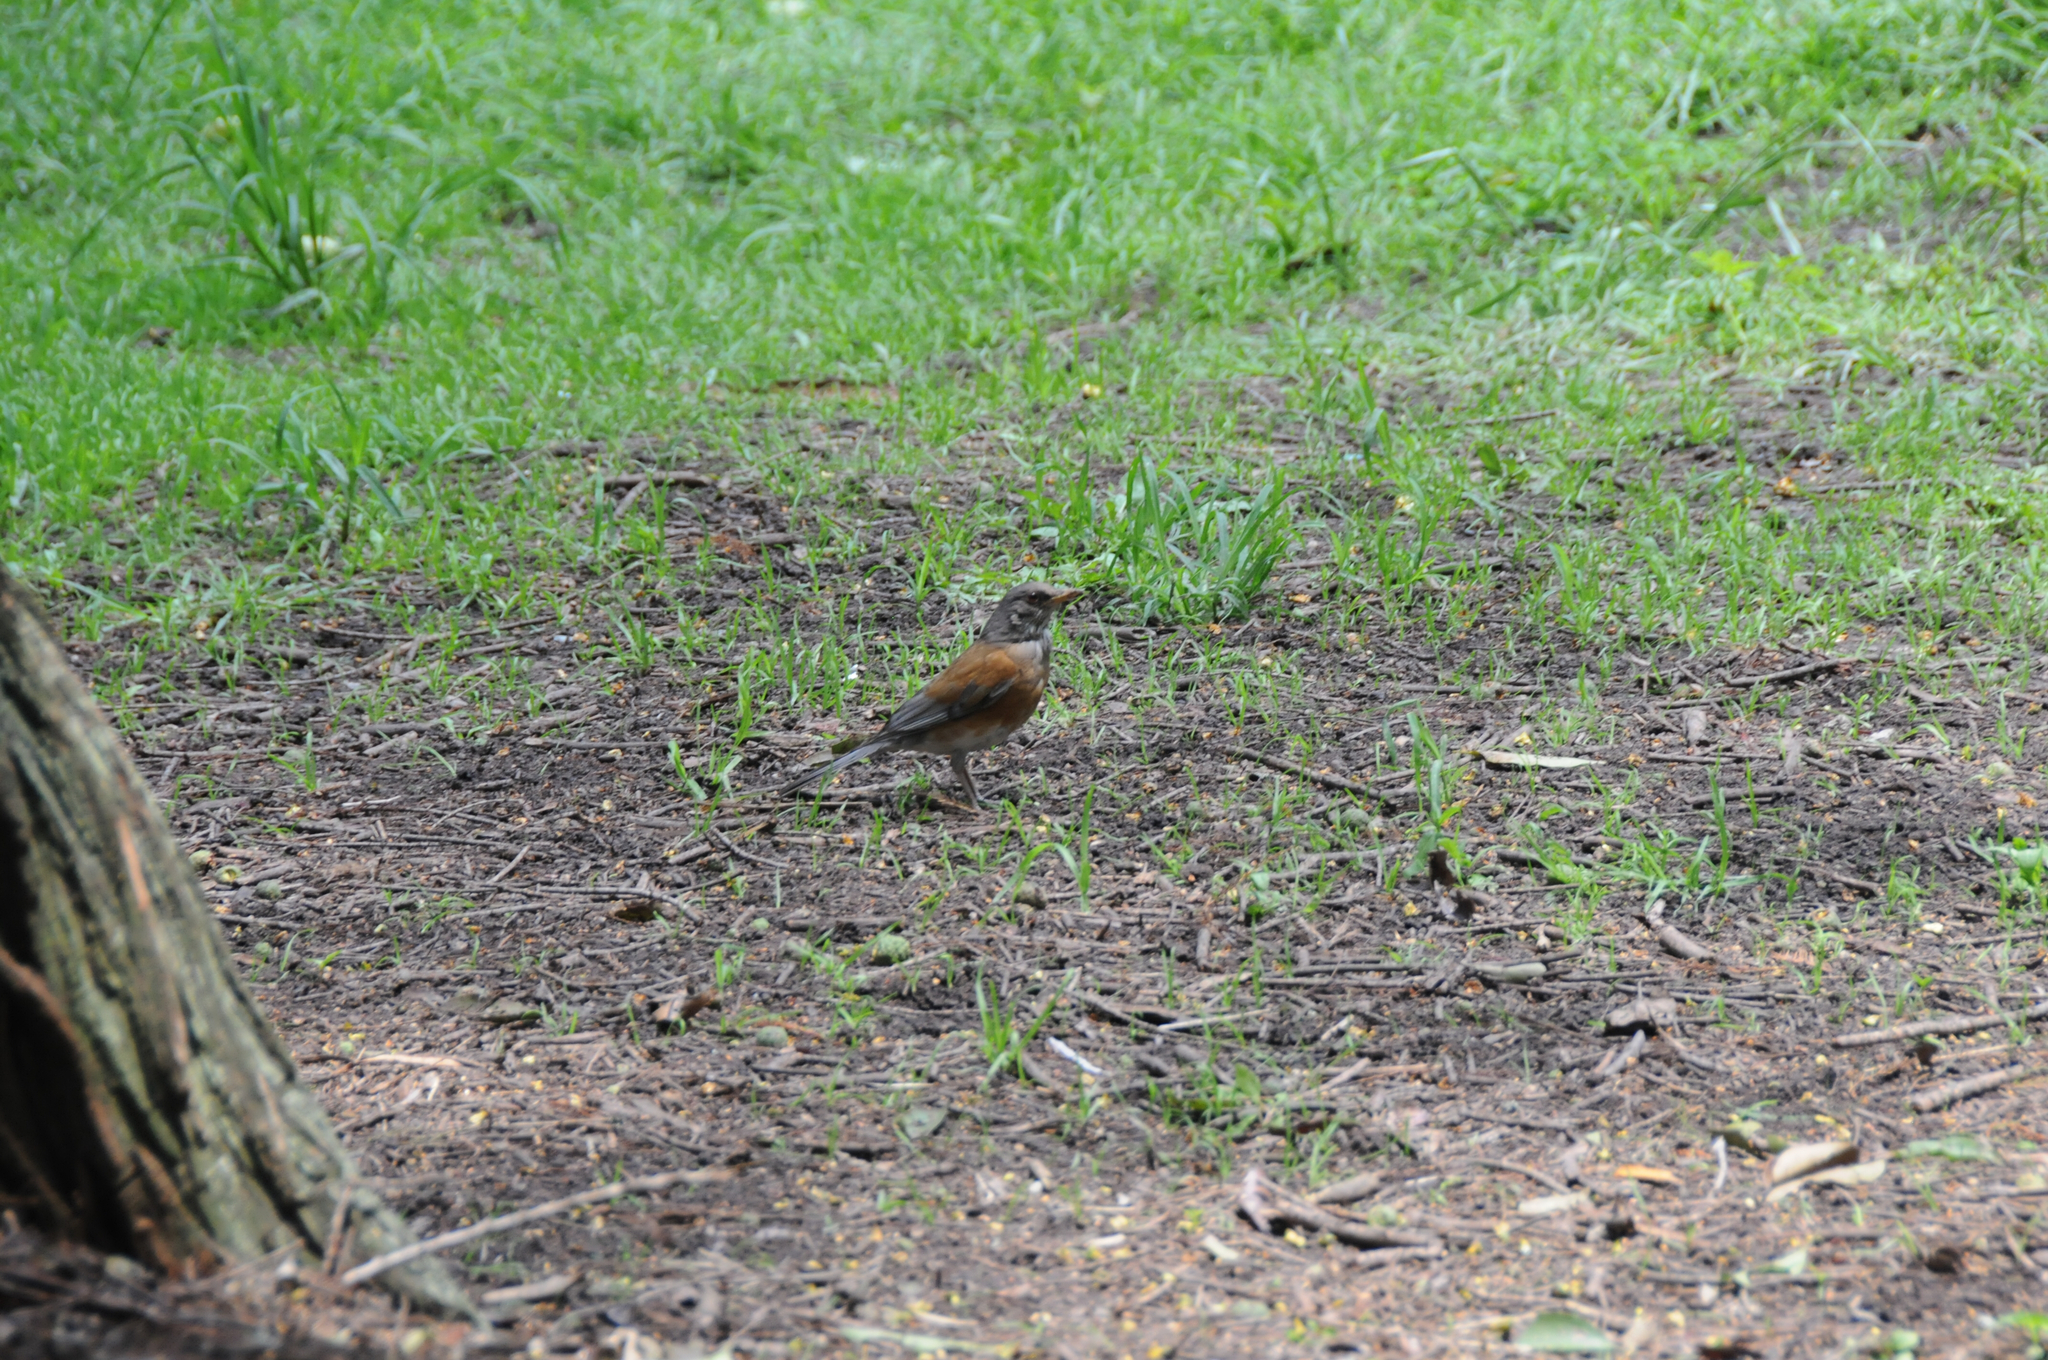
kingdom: Animalia
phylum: Chordata
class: Aves
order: Passeriformes
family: Turdidae
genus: Turdus
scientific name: Turdus rufopalliatus
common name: Rufous-backed robin
